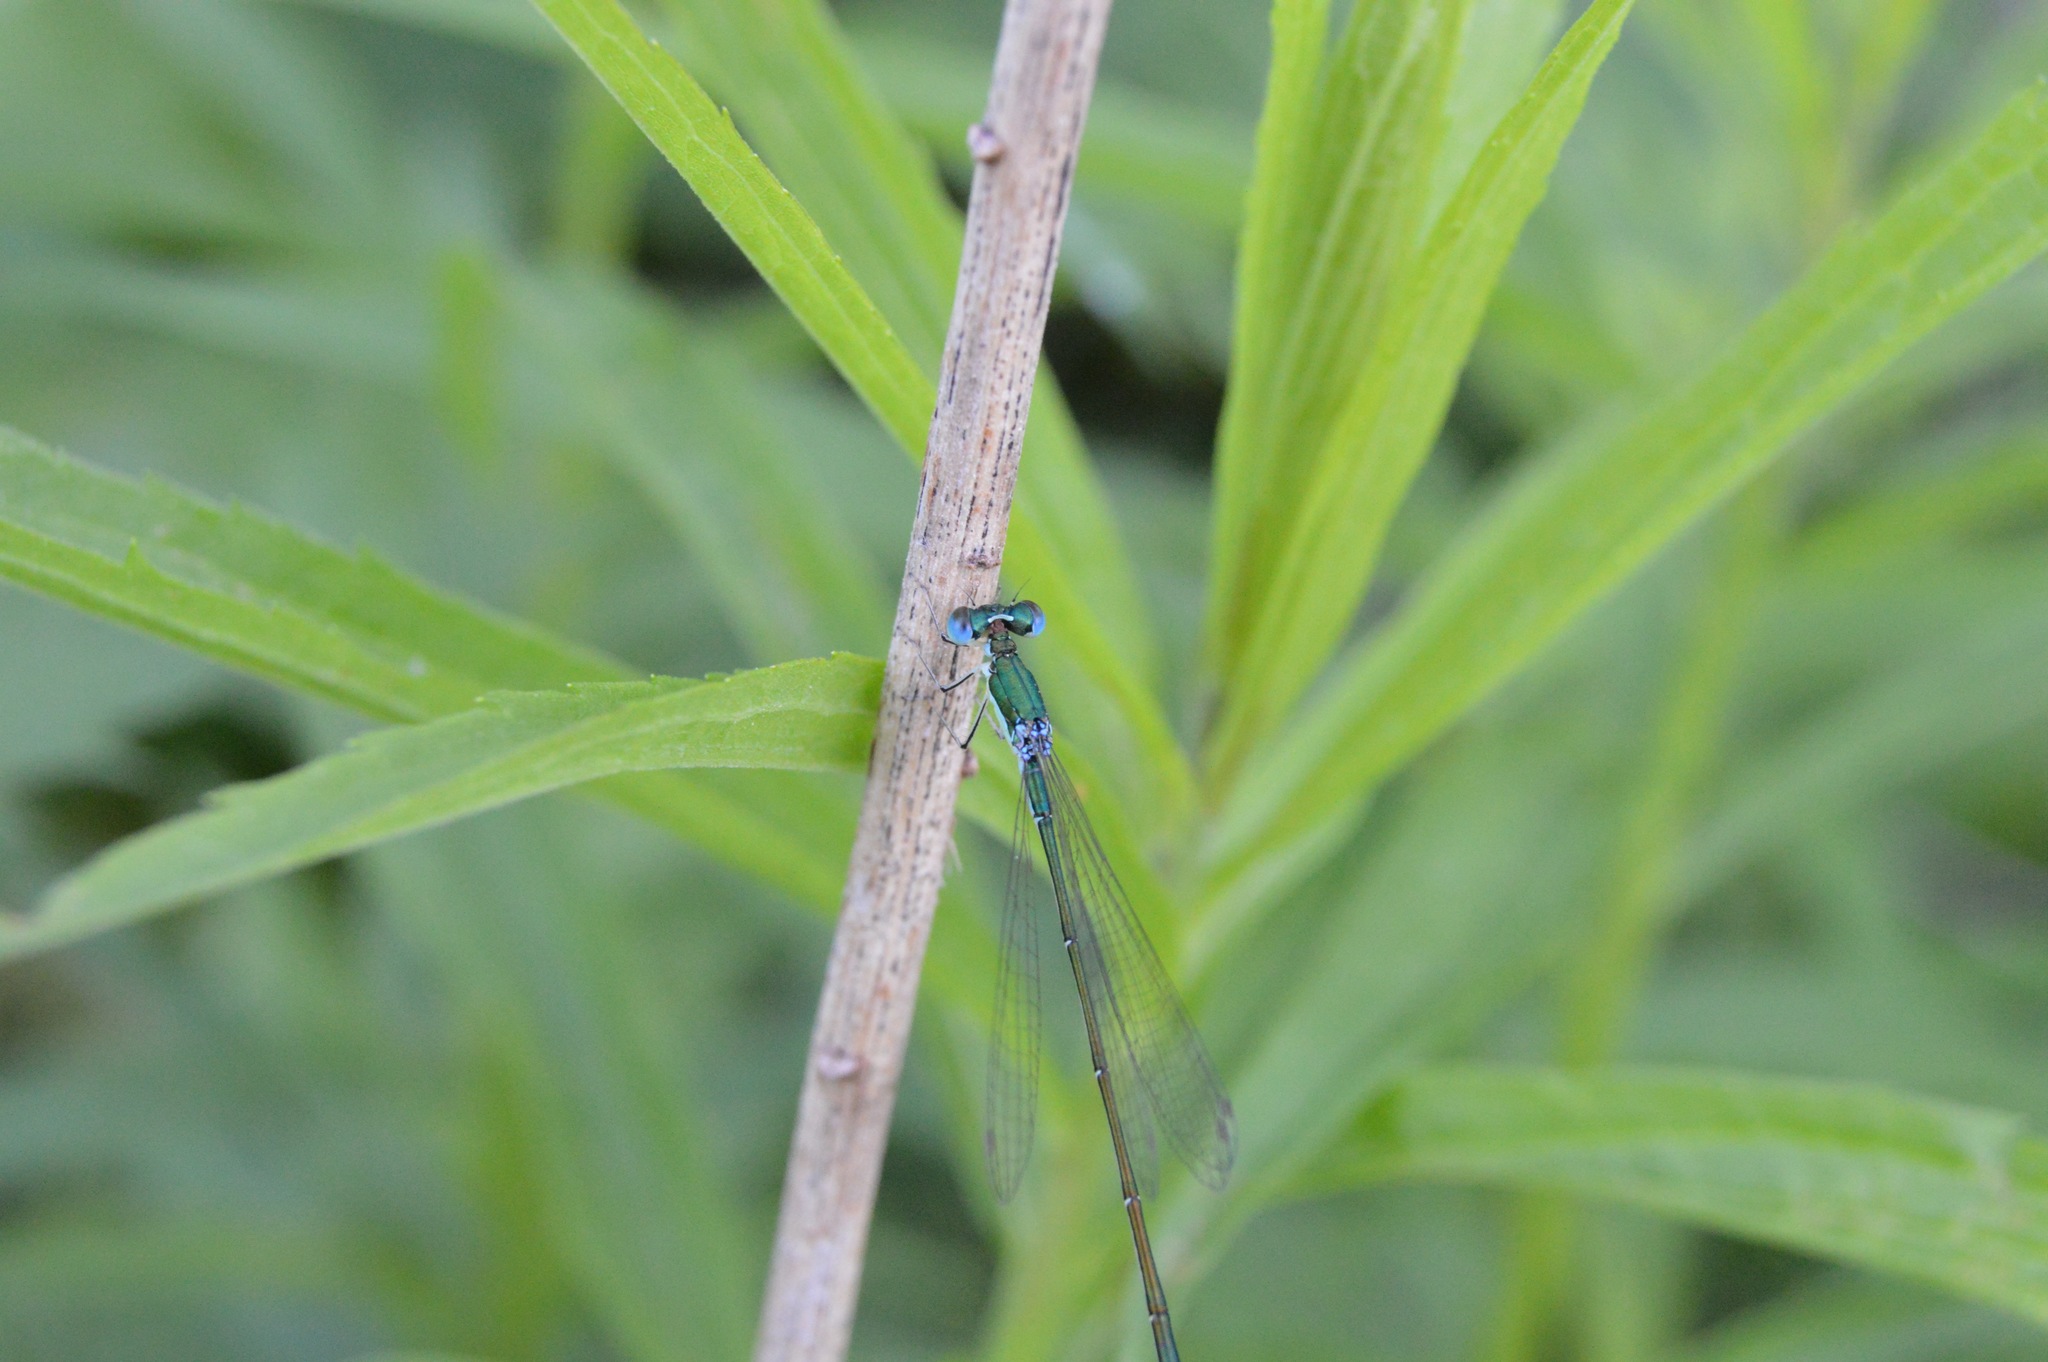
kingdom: Animalia
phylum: Arthropoda
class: Insecta
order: Odonata
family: Coenagrionidae
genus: Nehalennia
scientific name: Nehalennia irene
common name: Sedge sprite
